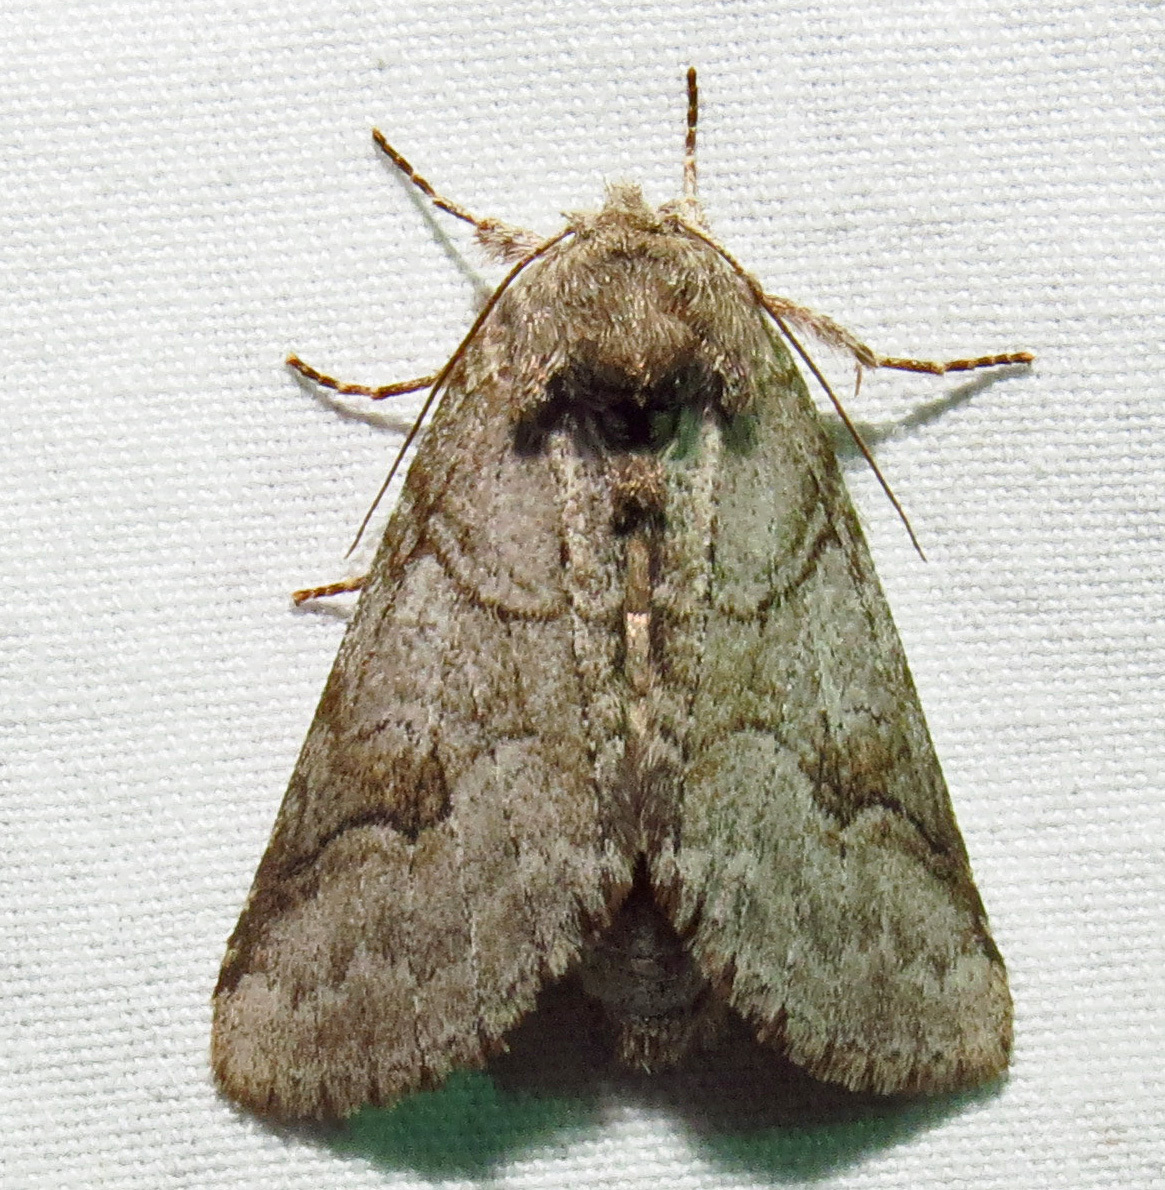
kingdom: Animalia
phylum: Arthropoda
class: Insecta
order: Lepidoptera
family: Notodontidae
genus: Lochmaeus
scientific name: Lochmaeus bilineata
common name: Double-lined prominent
